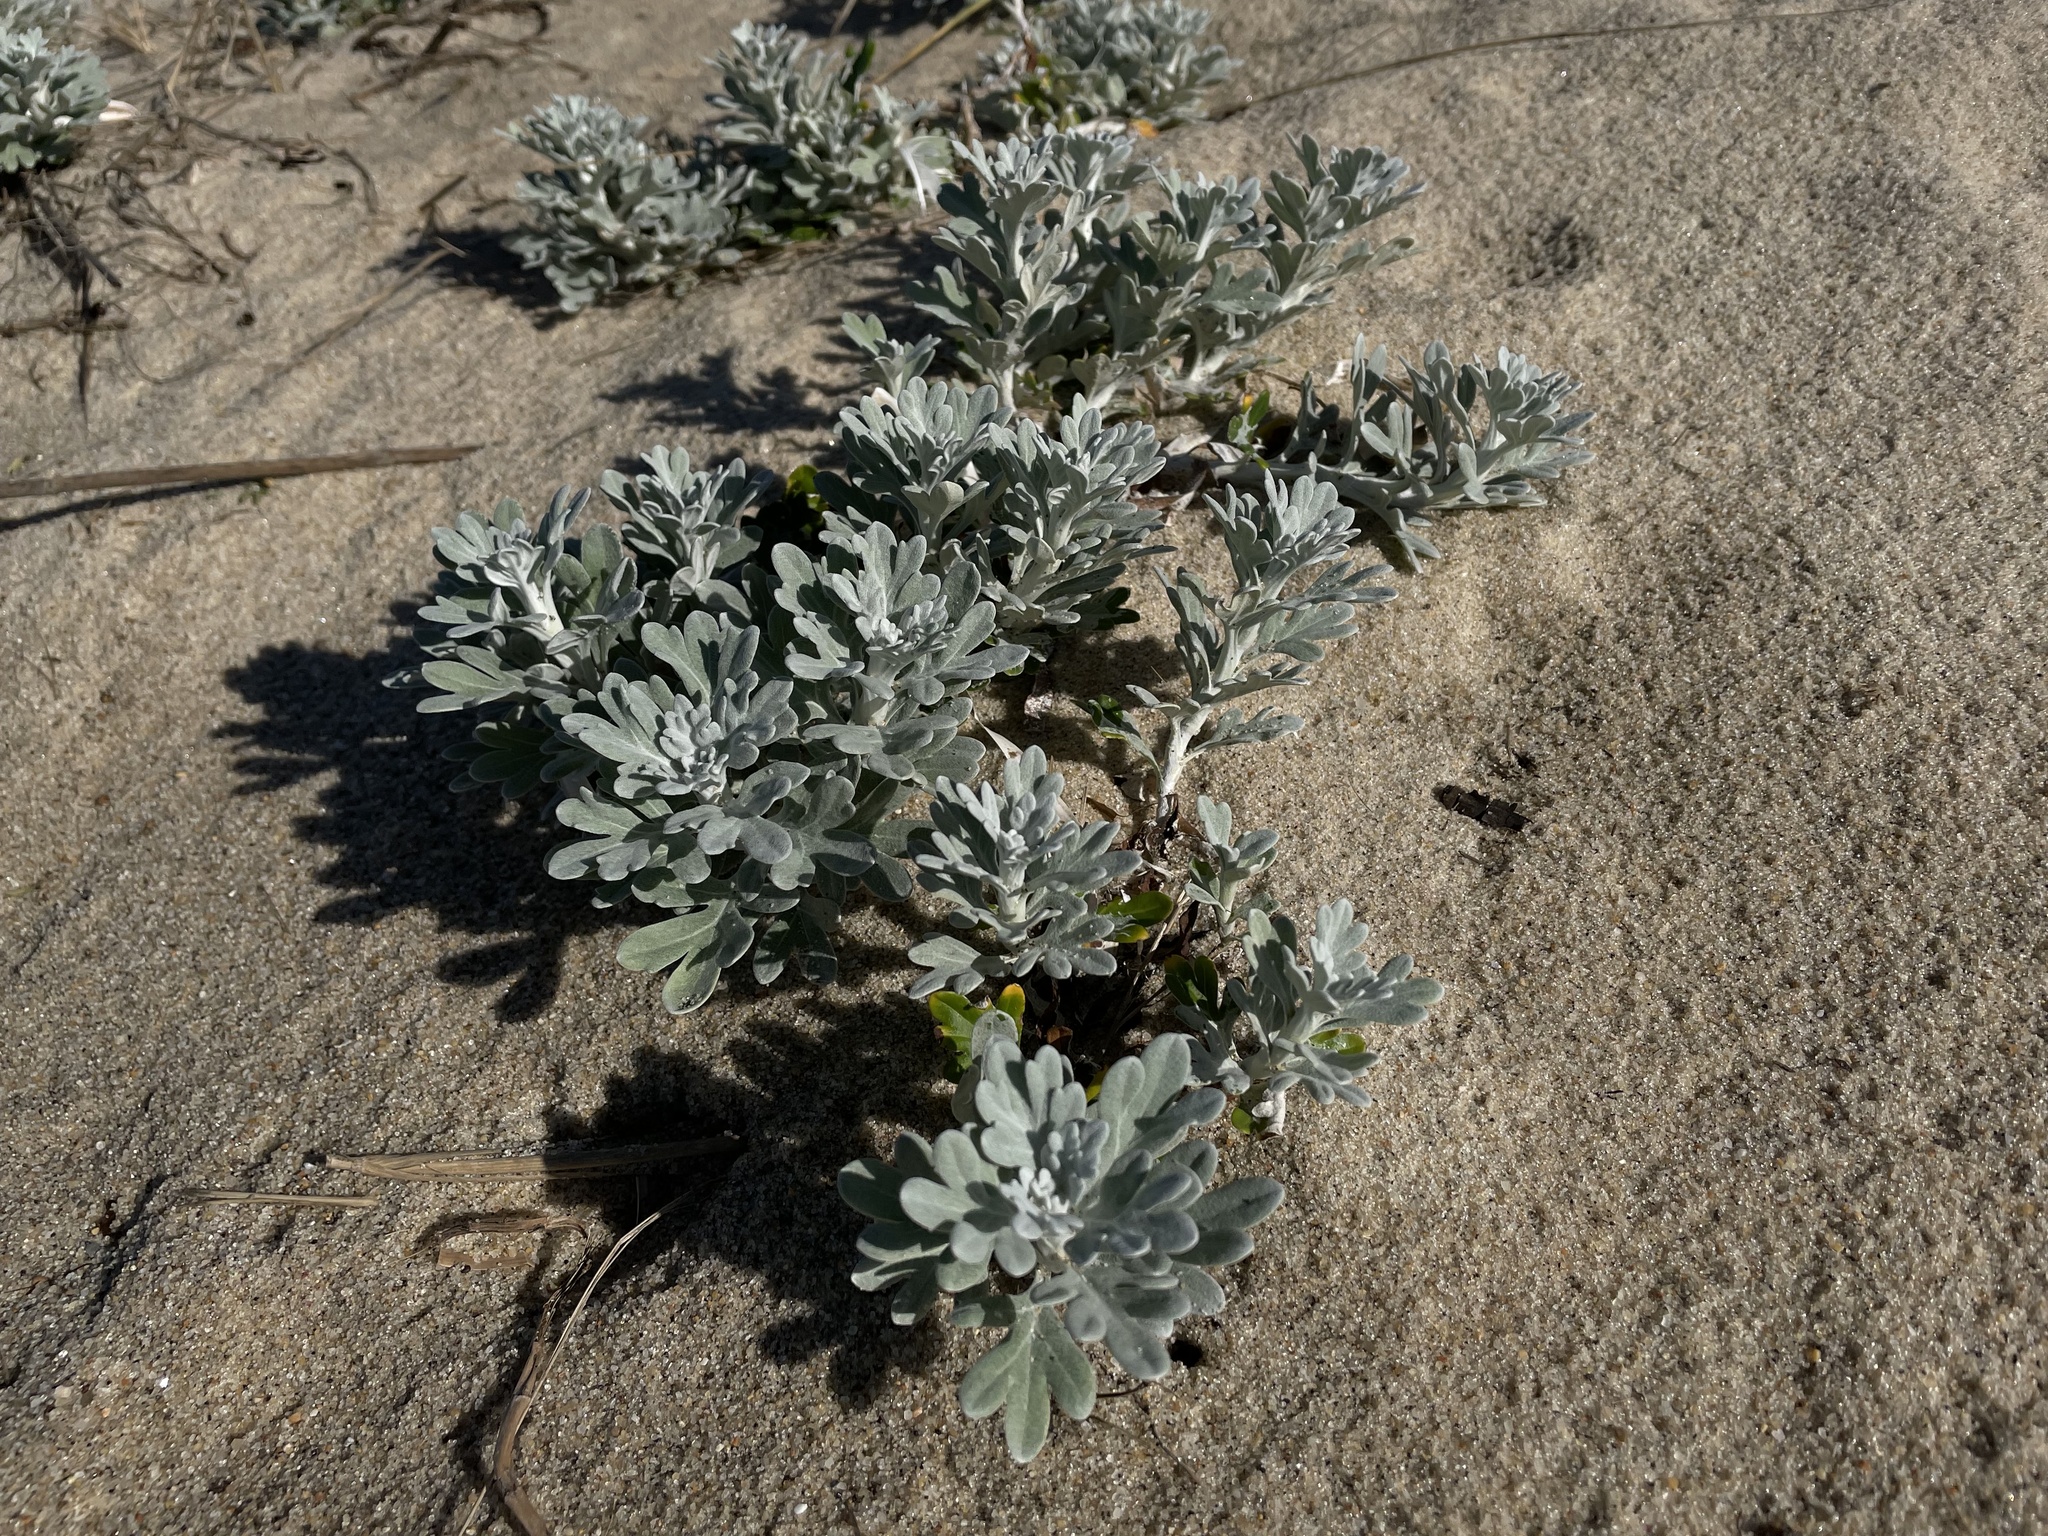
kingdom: Plantae
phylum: Tracheophyta
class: Magnoliopsida
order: Asterales
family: Asteraceae
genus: Artemisia
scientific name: Artemisia stelleriana
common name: Beach wormwood
